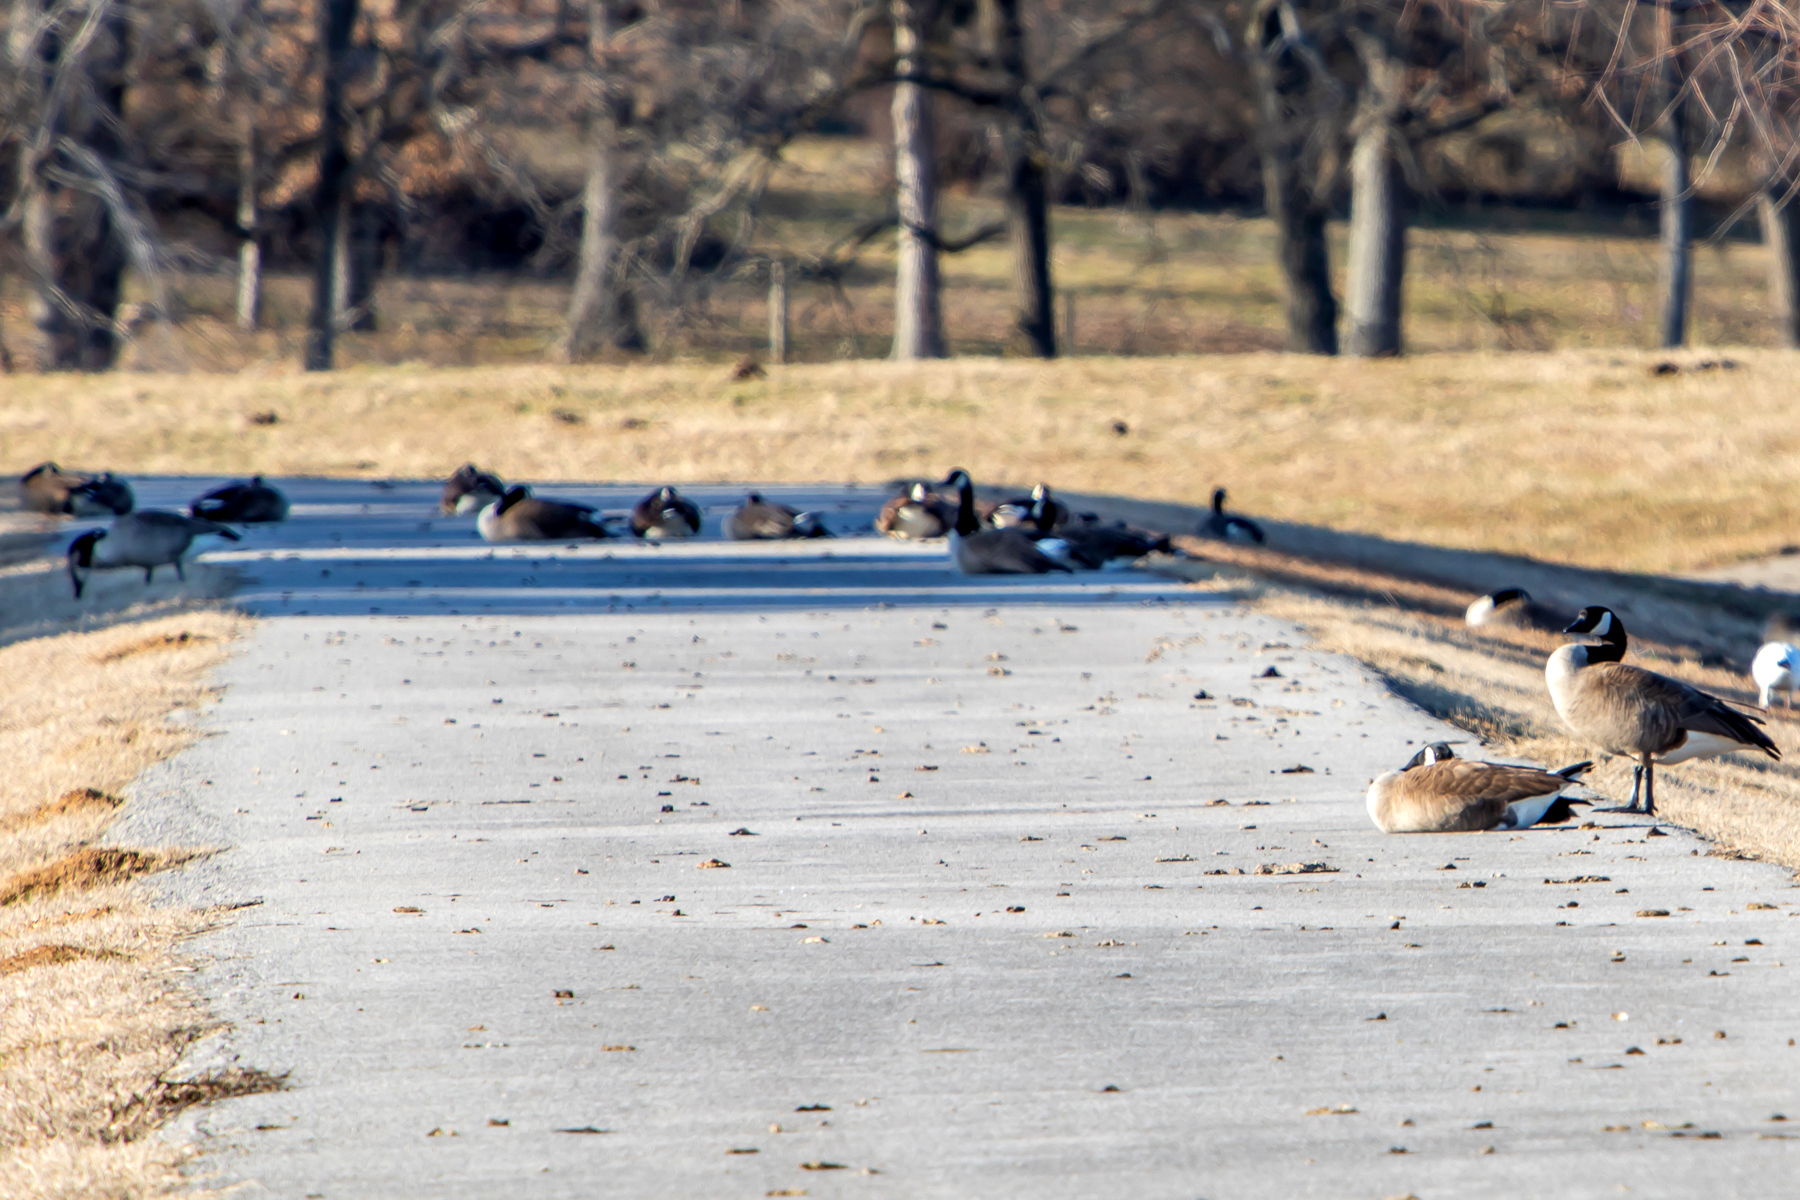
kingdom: Animalia
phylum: Chordata
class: Aves
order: Anseriformes
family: Anatidae
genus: Branta
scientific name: Branta canadensis
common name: Canada goose
